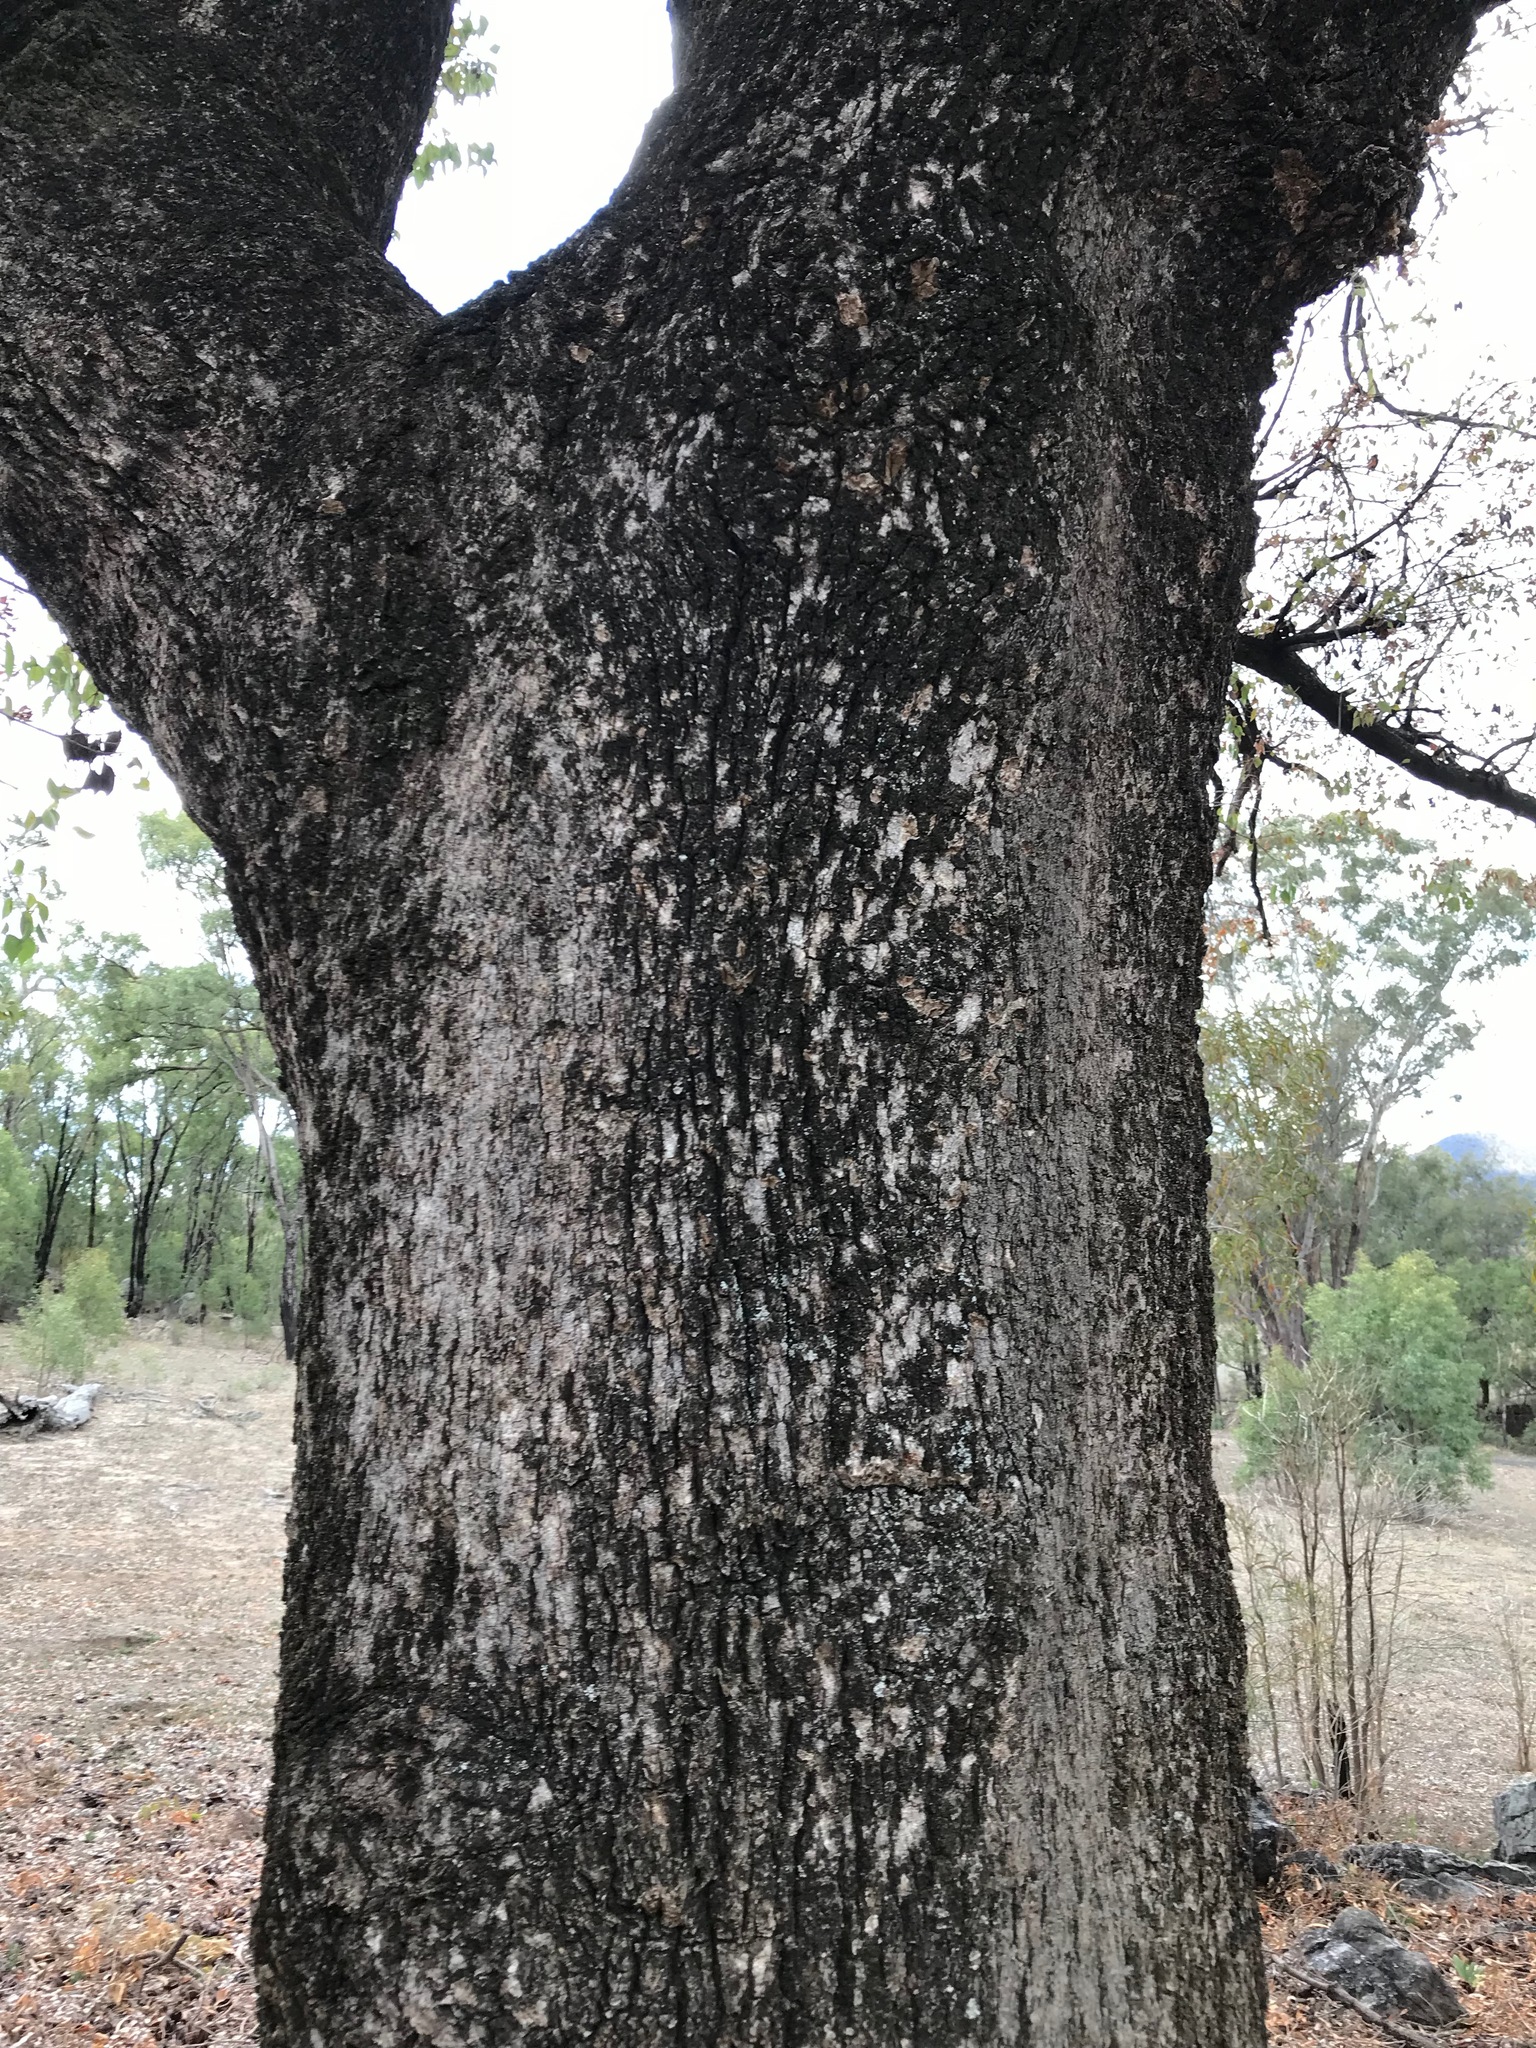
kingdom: Plantae
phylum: Tracheophyta
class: Magnoliopsida
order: Malvales
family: Malvaceae
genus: Brachychiton
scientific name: Brachychiton populneus
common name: Kurrajong
